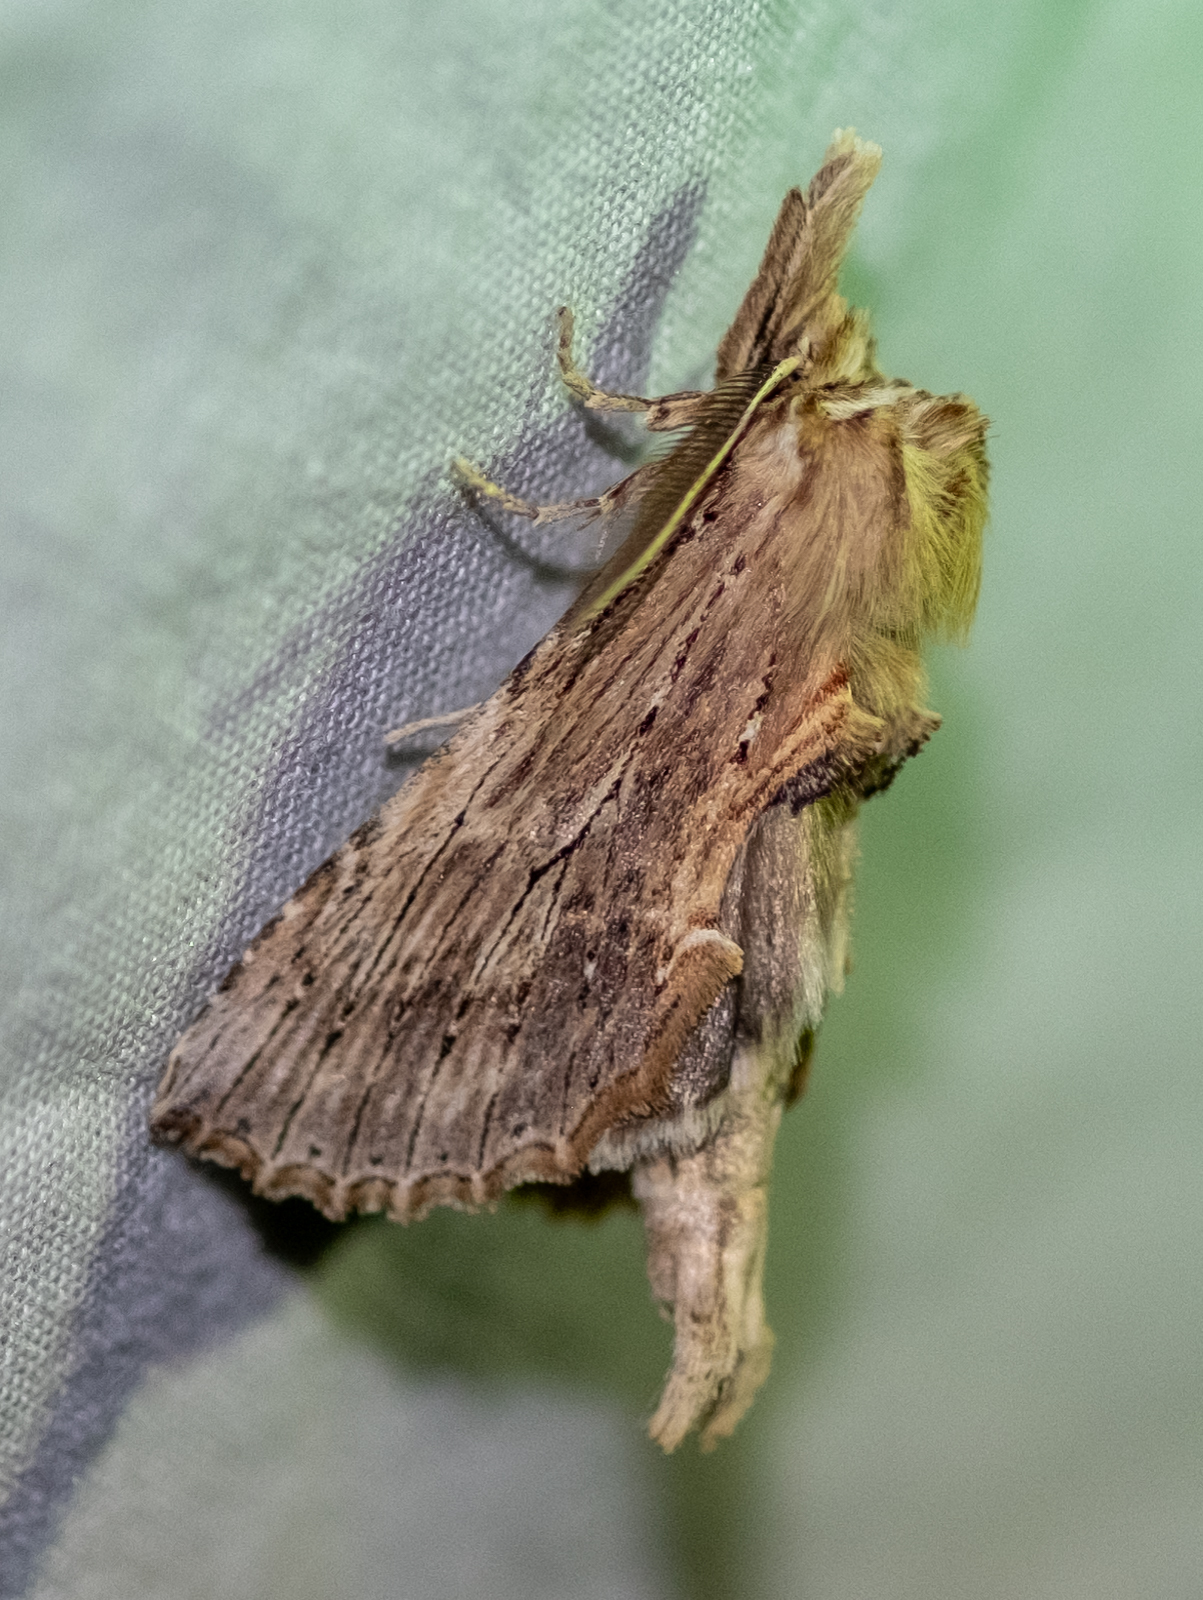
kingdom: Animalia
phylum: Arthropoda
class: Insecta
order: Lepidoptera
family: Notodontidae
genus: Pterostoma
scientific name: Pterostoma palpina
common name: Pale prominent
